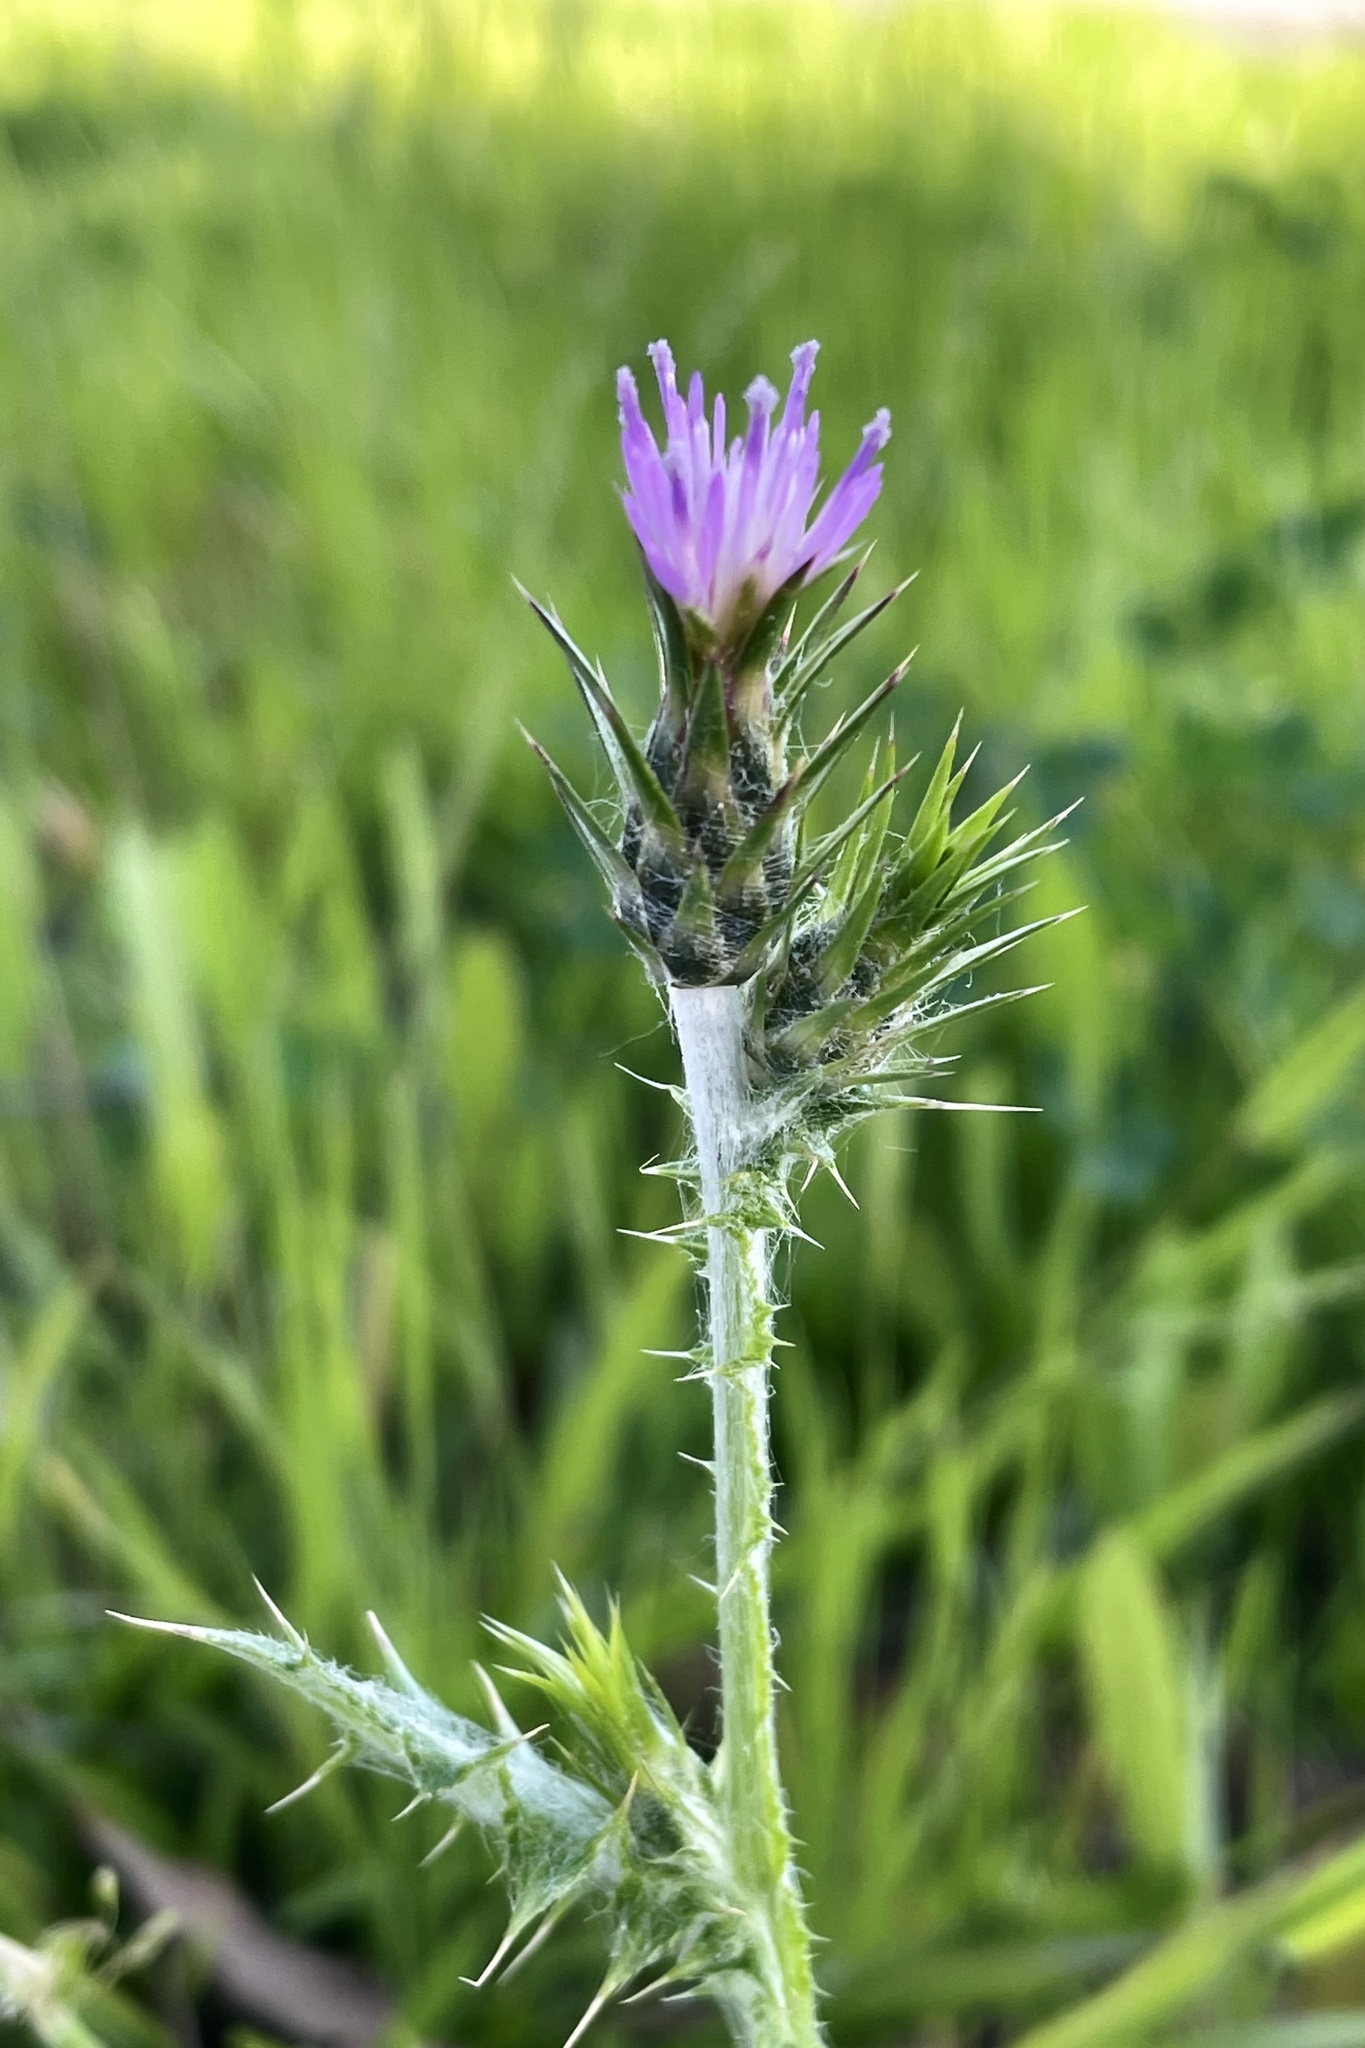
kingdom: Plantae
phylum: Tracheophyta
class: Magnoliopsida
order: Asterales
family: Asteraceae
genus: Carduus
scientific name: Carduus pycnocephalus
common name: Plymouth thistle
